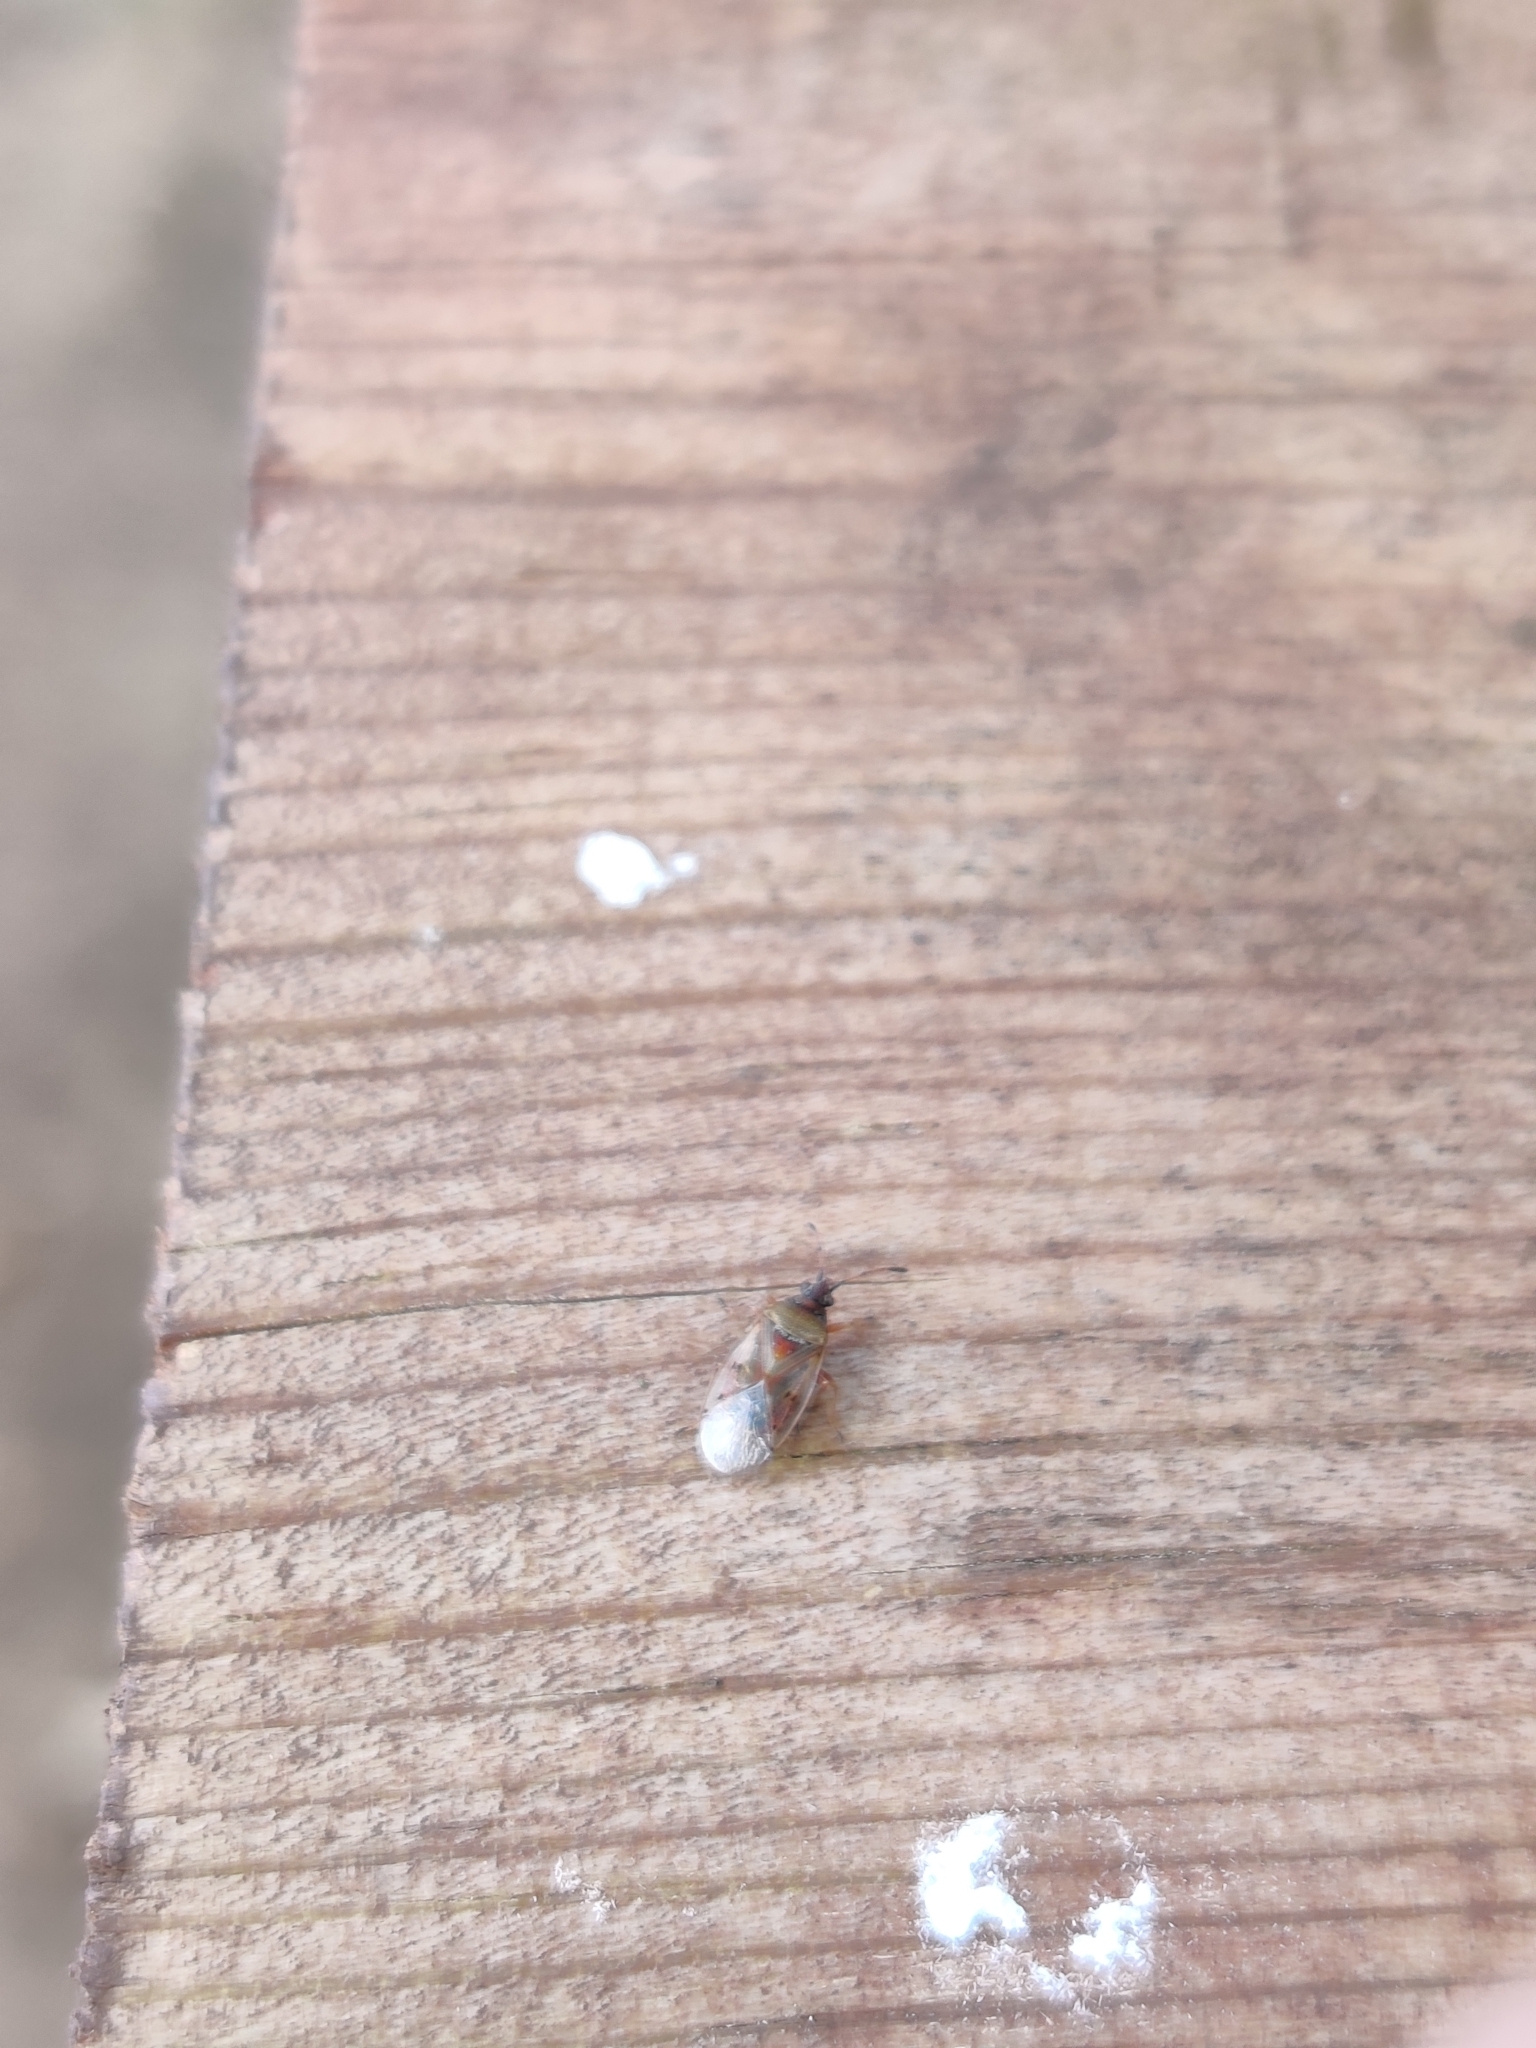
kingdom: Animalia
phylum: Arthropoda
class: Insecta
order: Hemiptera
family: Lygaeidae
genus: Kleidocerys
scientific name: Kleidocerys resedae
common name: Birch catkin bug
